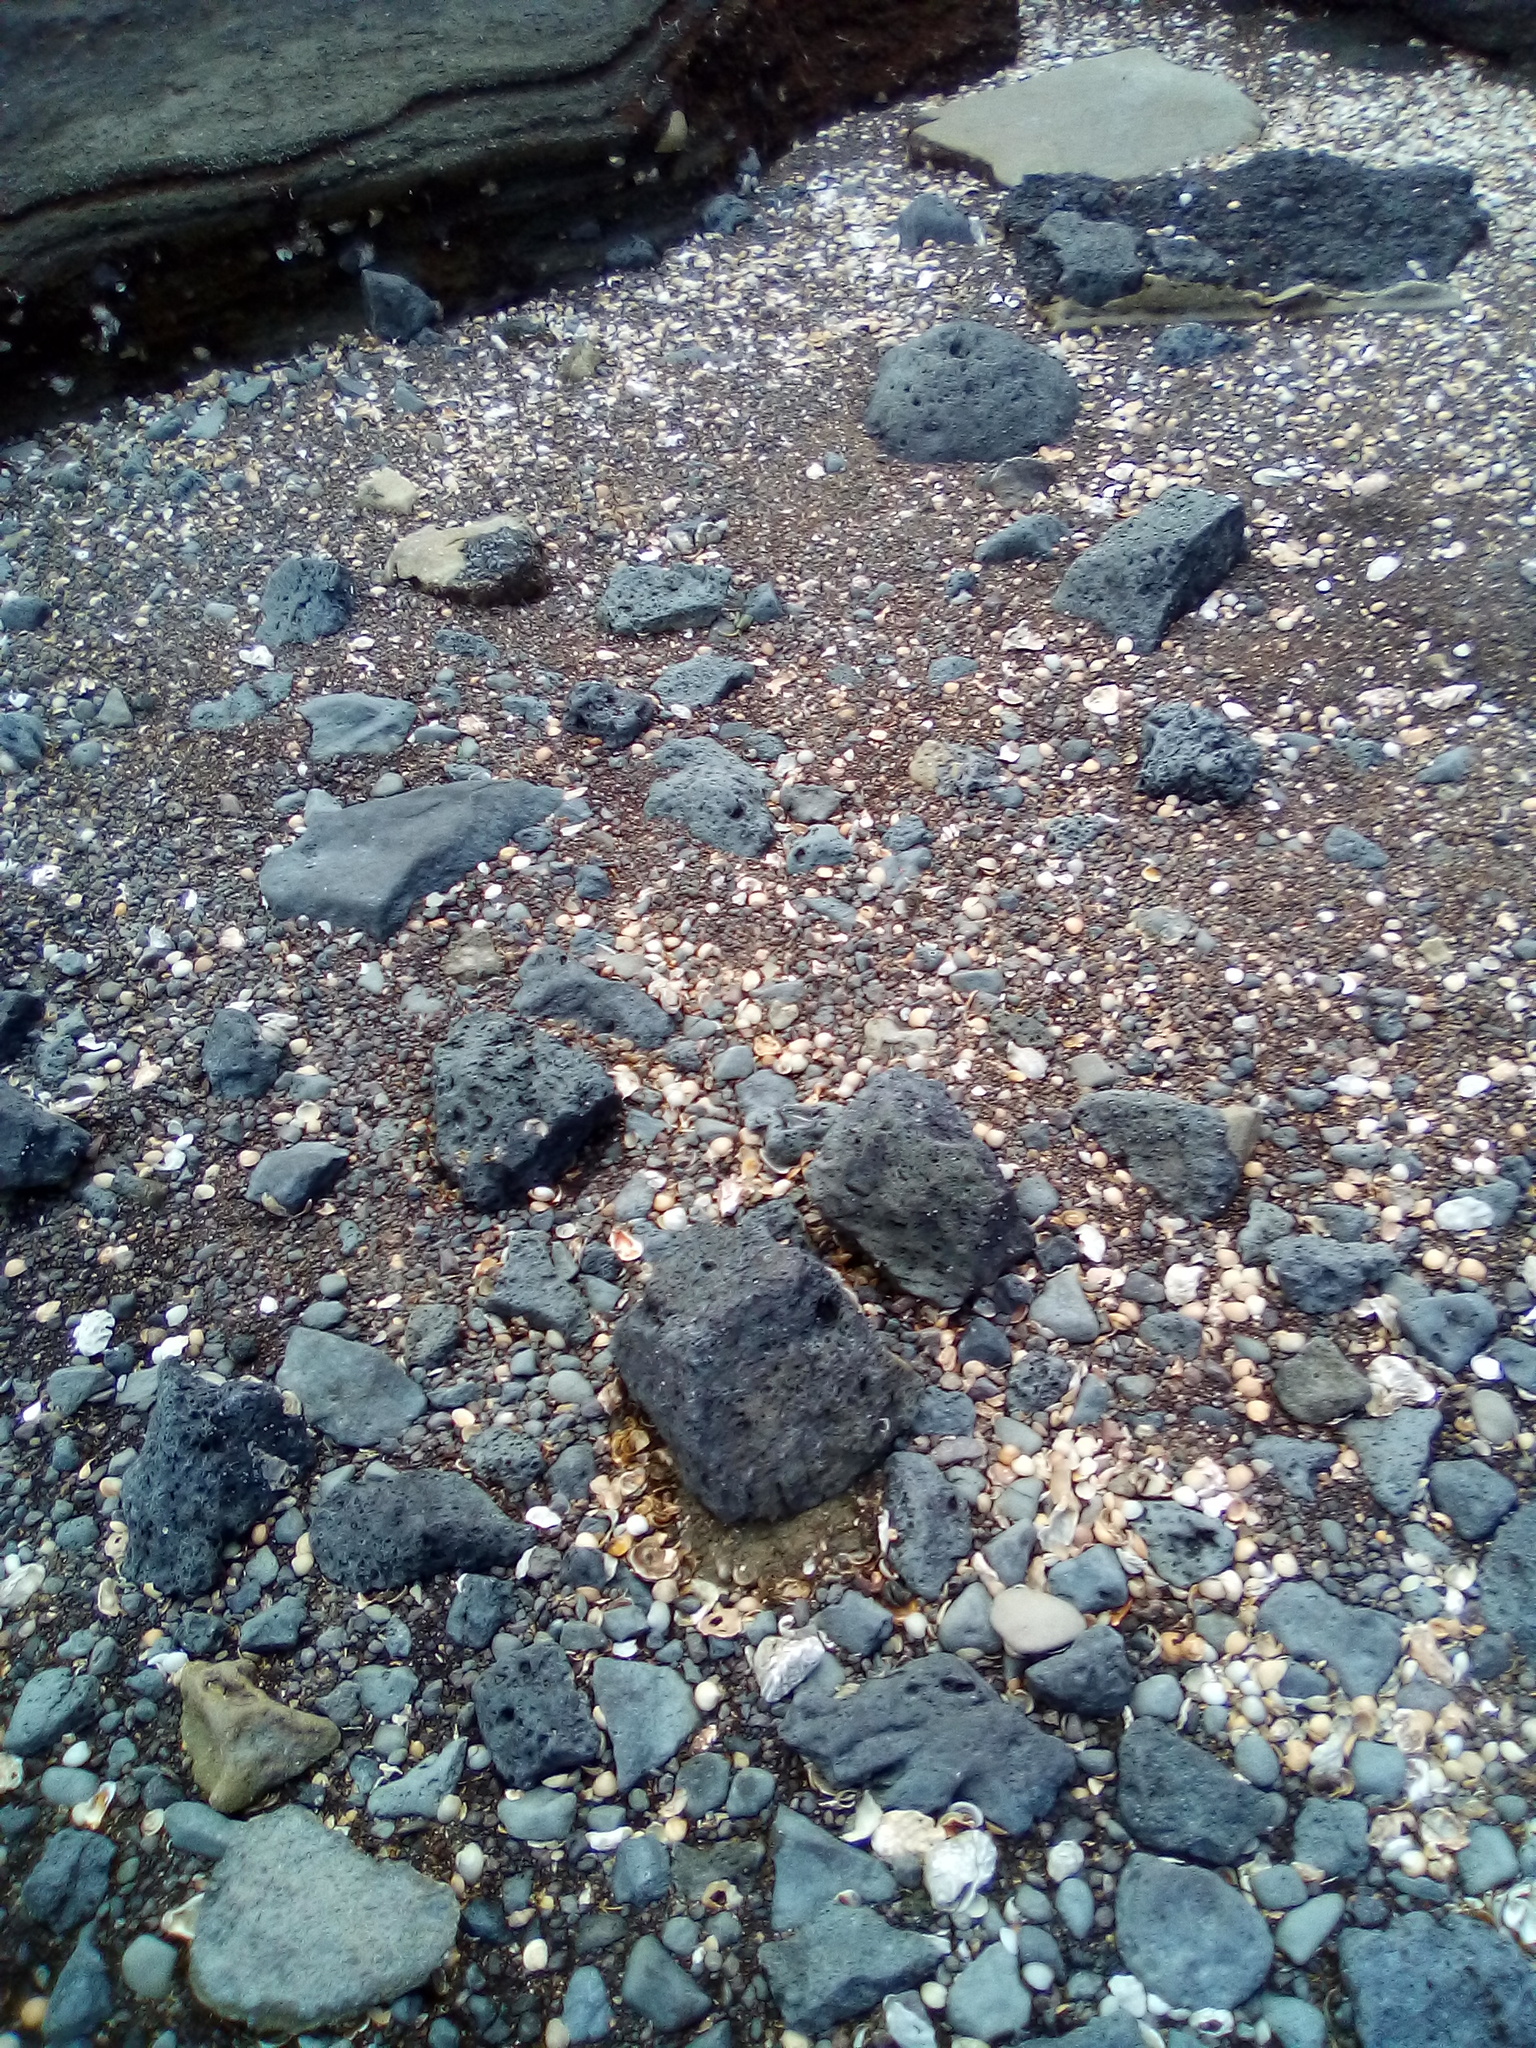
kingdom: Animalia
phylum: Mollusca
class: Gastropoda
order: Ellobiida
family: Ellobiidae
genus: Leuconopsis
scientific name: Leuconopsis obsoleta
